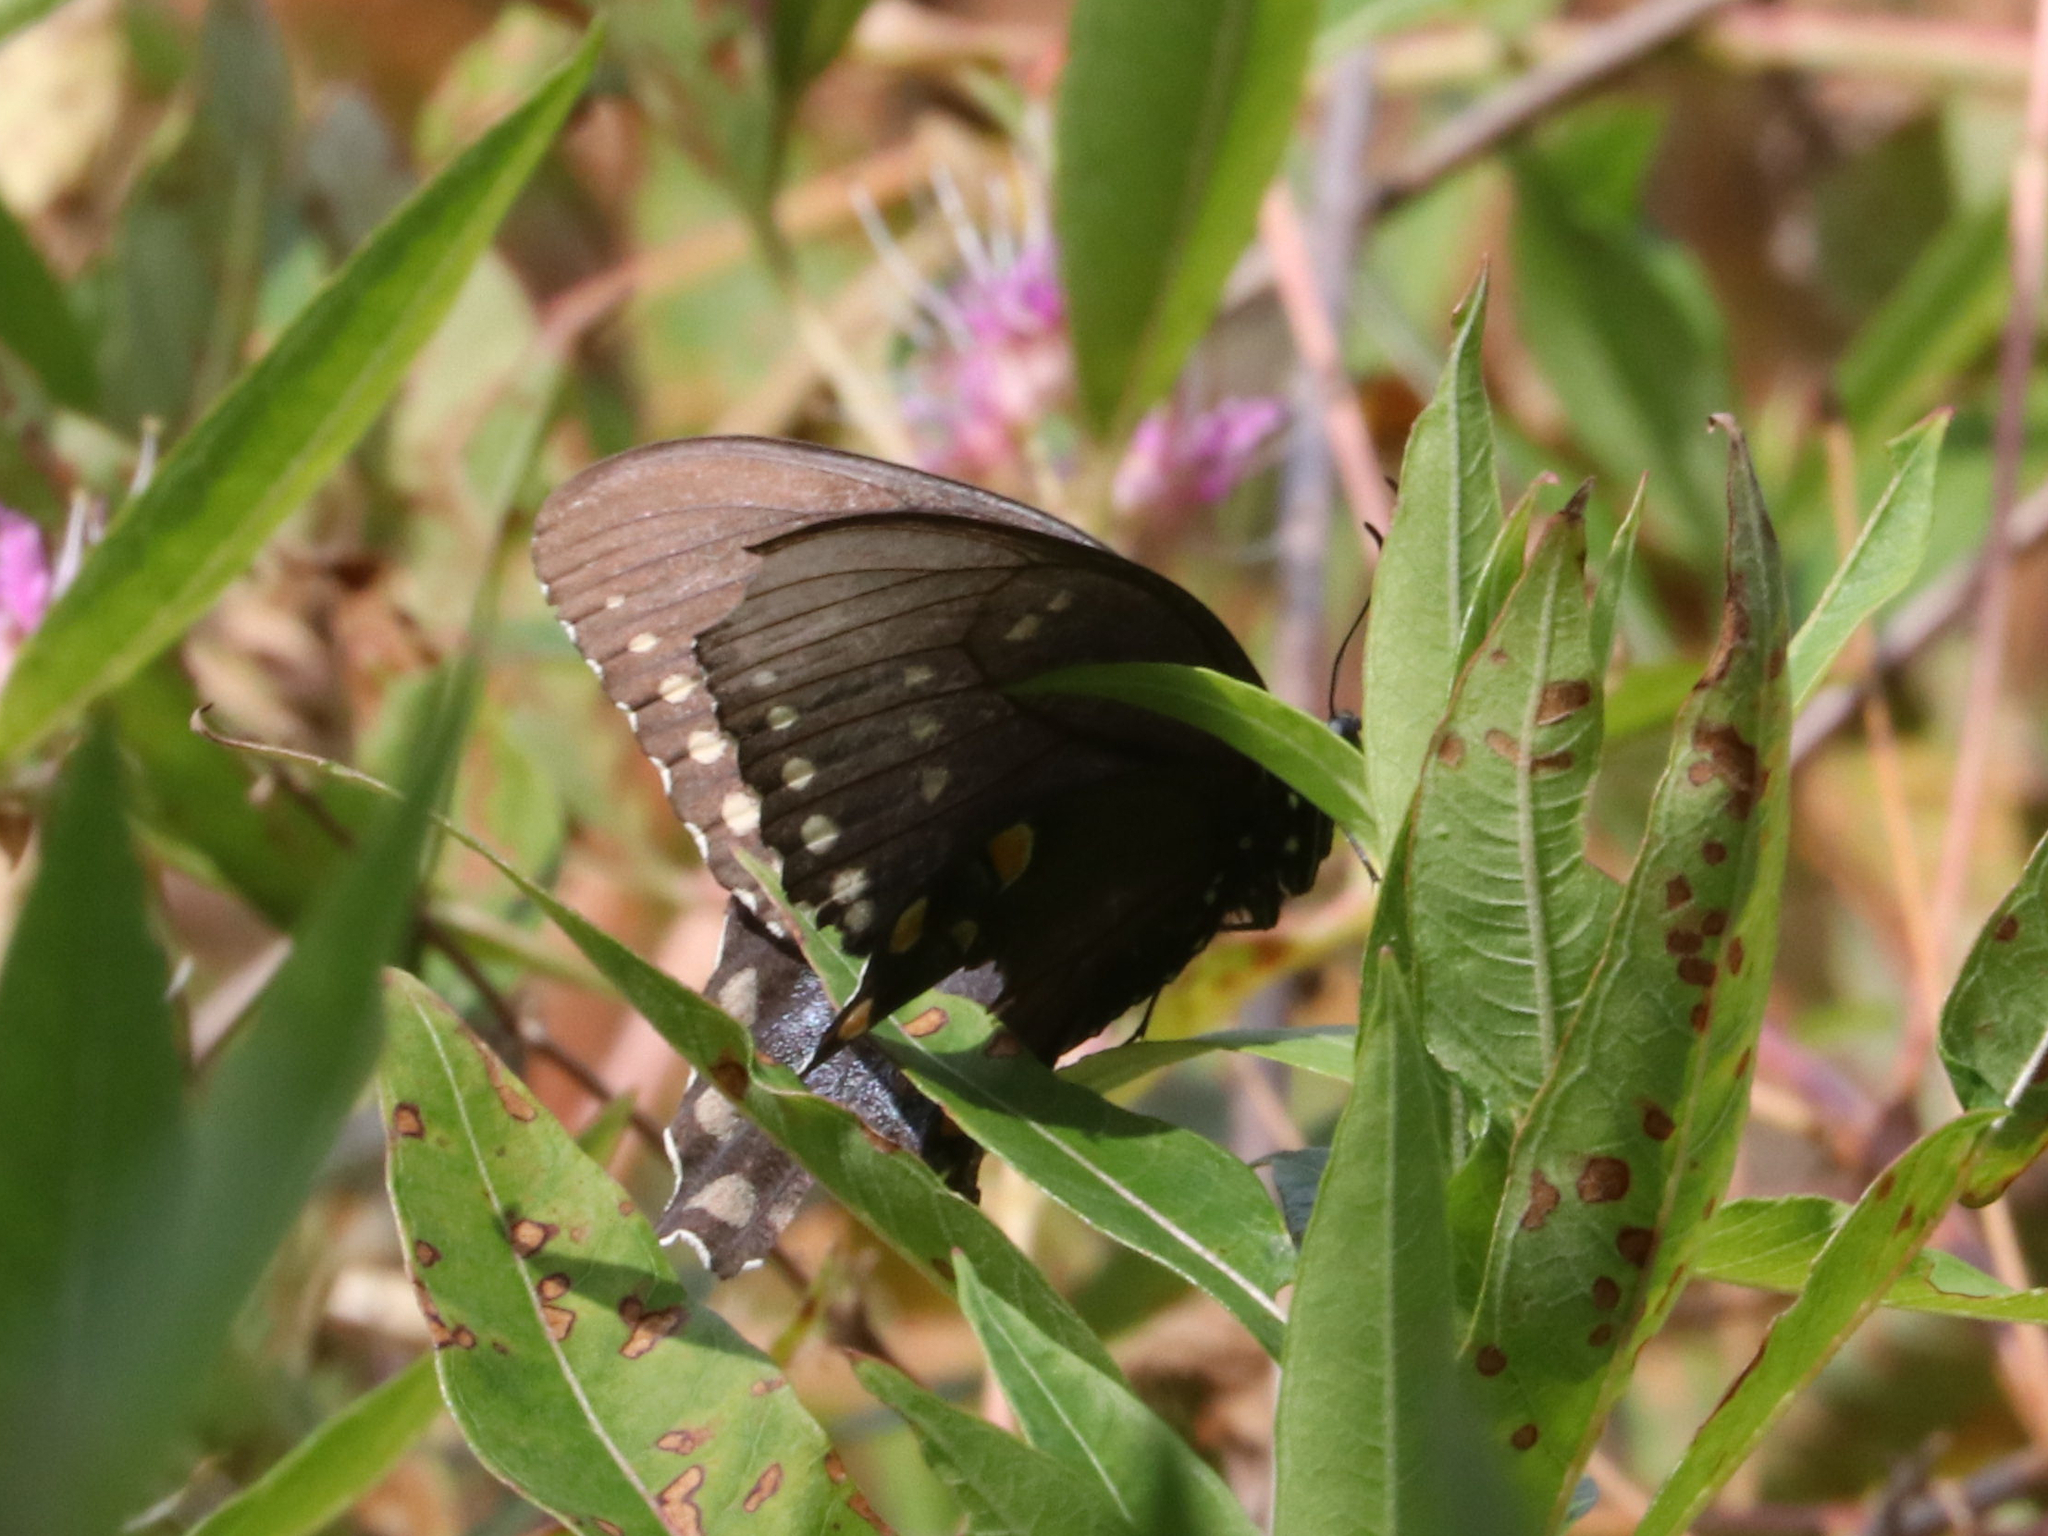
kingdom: Animalia
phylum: Arthropoda
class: Insecta
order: Lepidoptera
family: Papilionidae
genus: Papilio
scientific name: Papilio troilus
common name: Spicebush swallowtail
